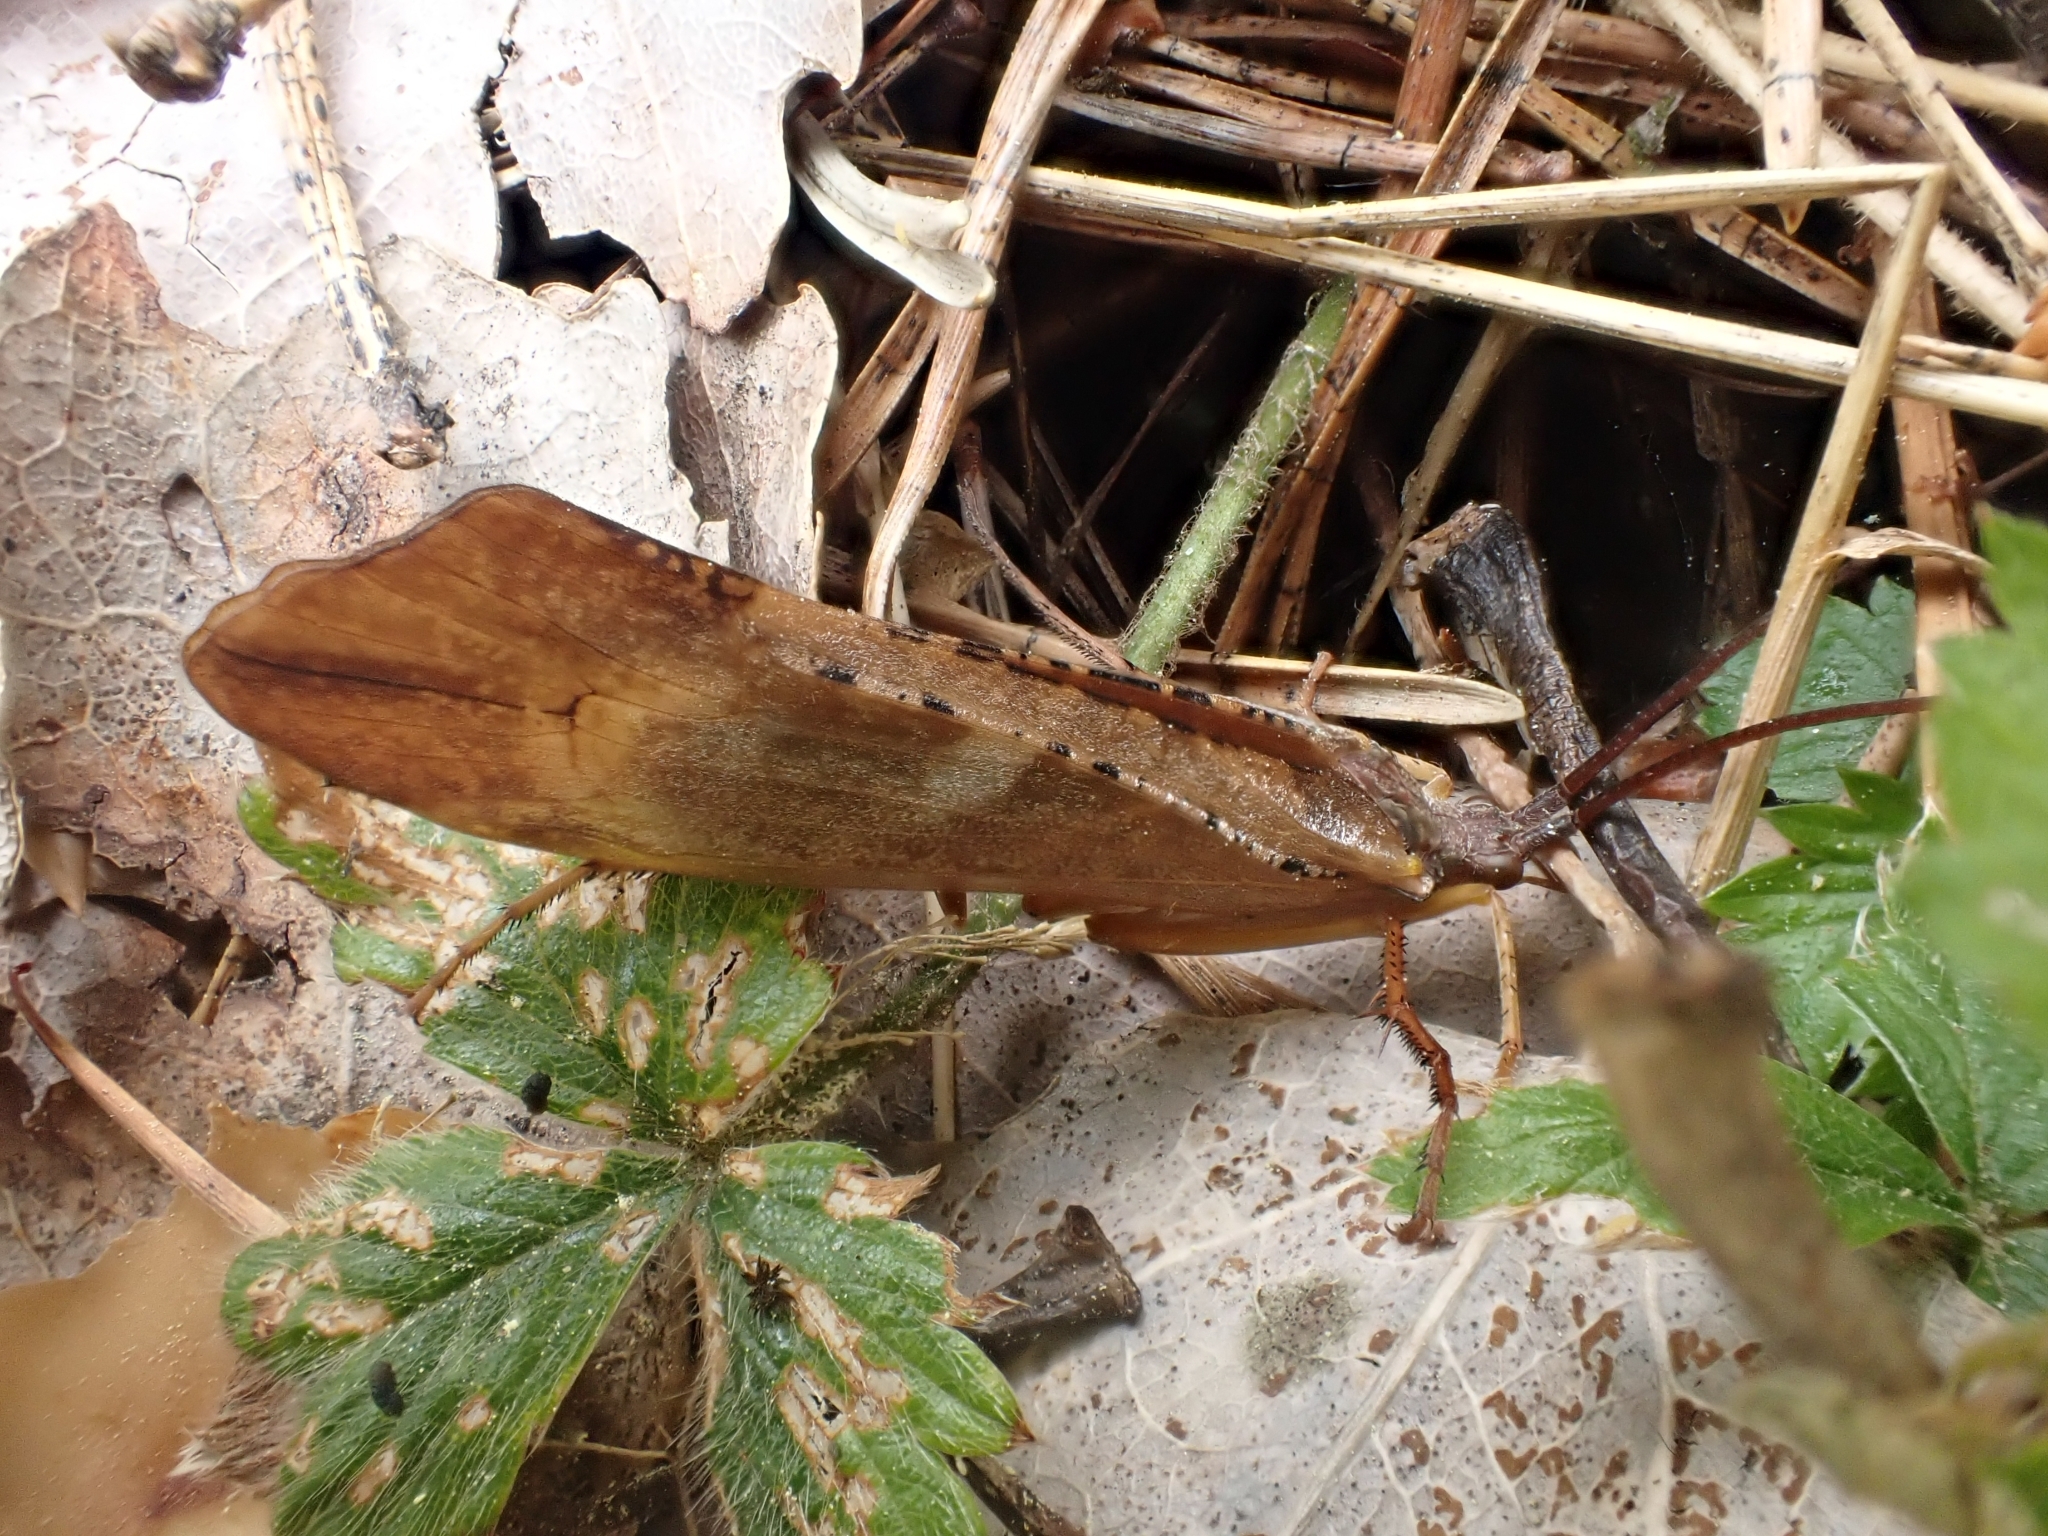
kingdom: Animalia
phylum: Arthropoda
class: Insecta
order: Trichoptera
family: Limnephilidae
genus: Nemotaulius
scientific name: Nemotaulius punctatolineatus
